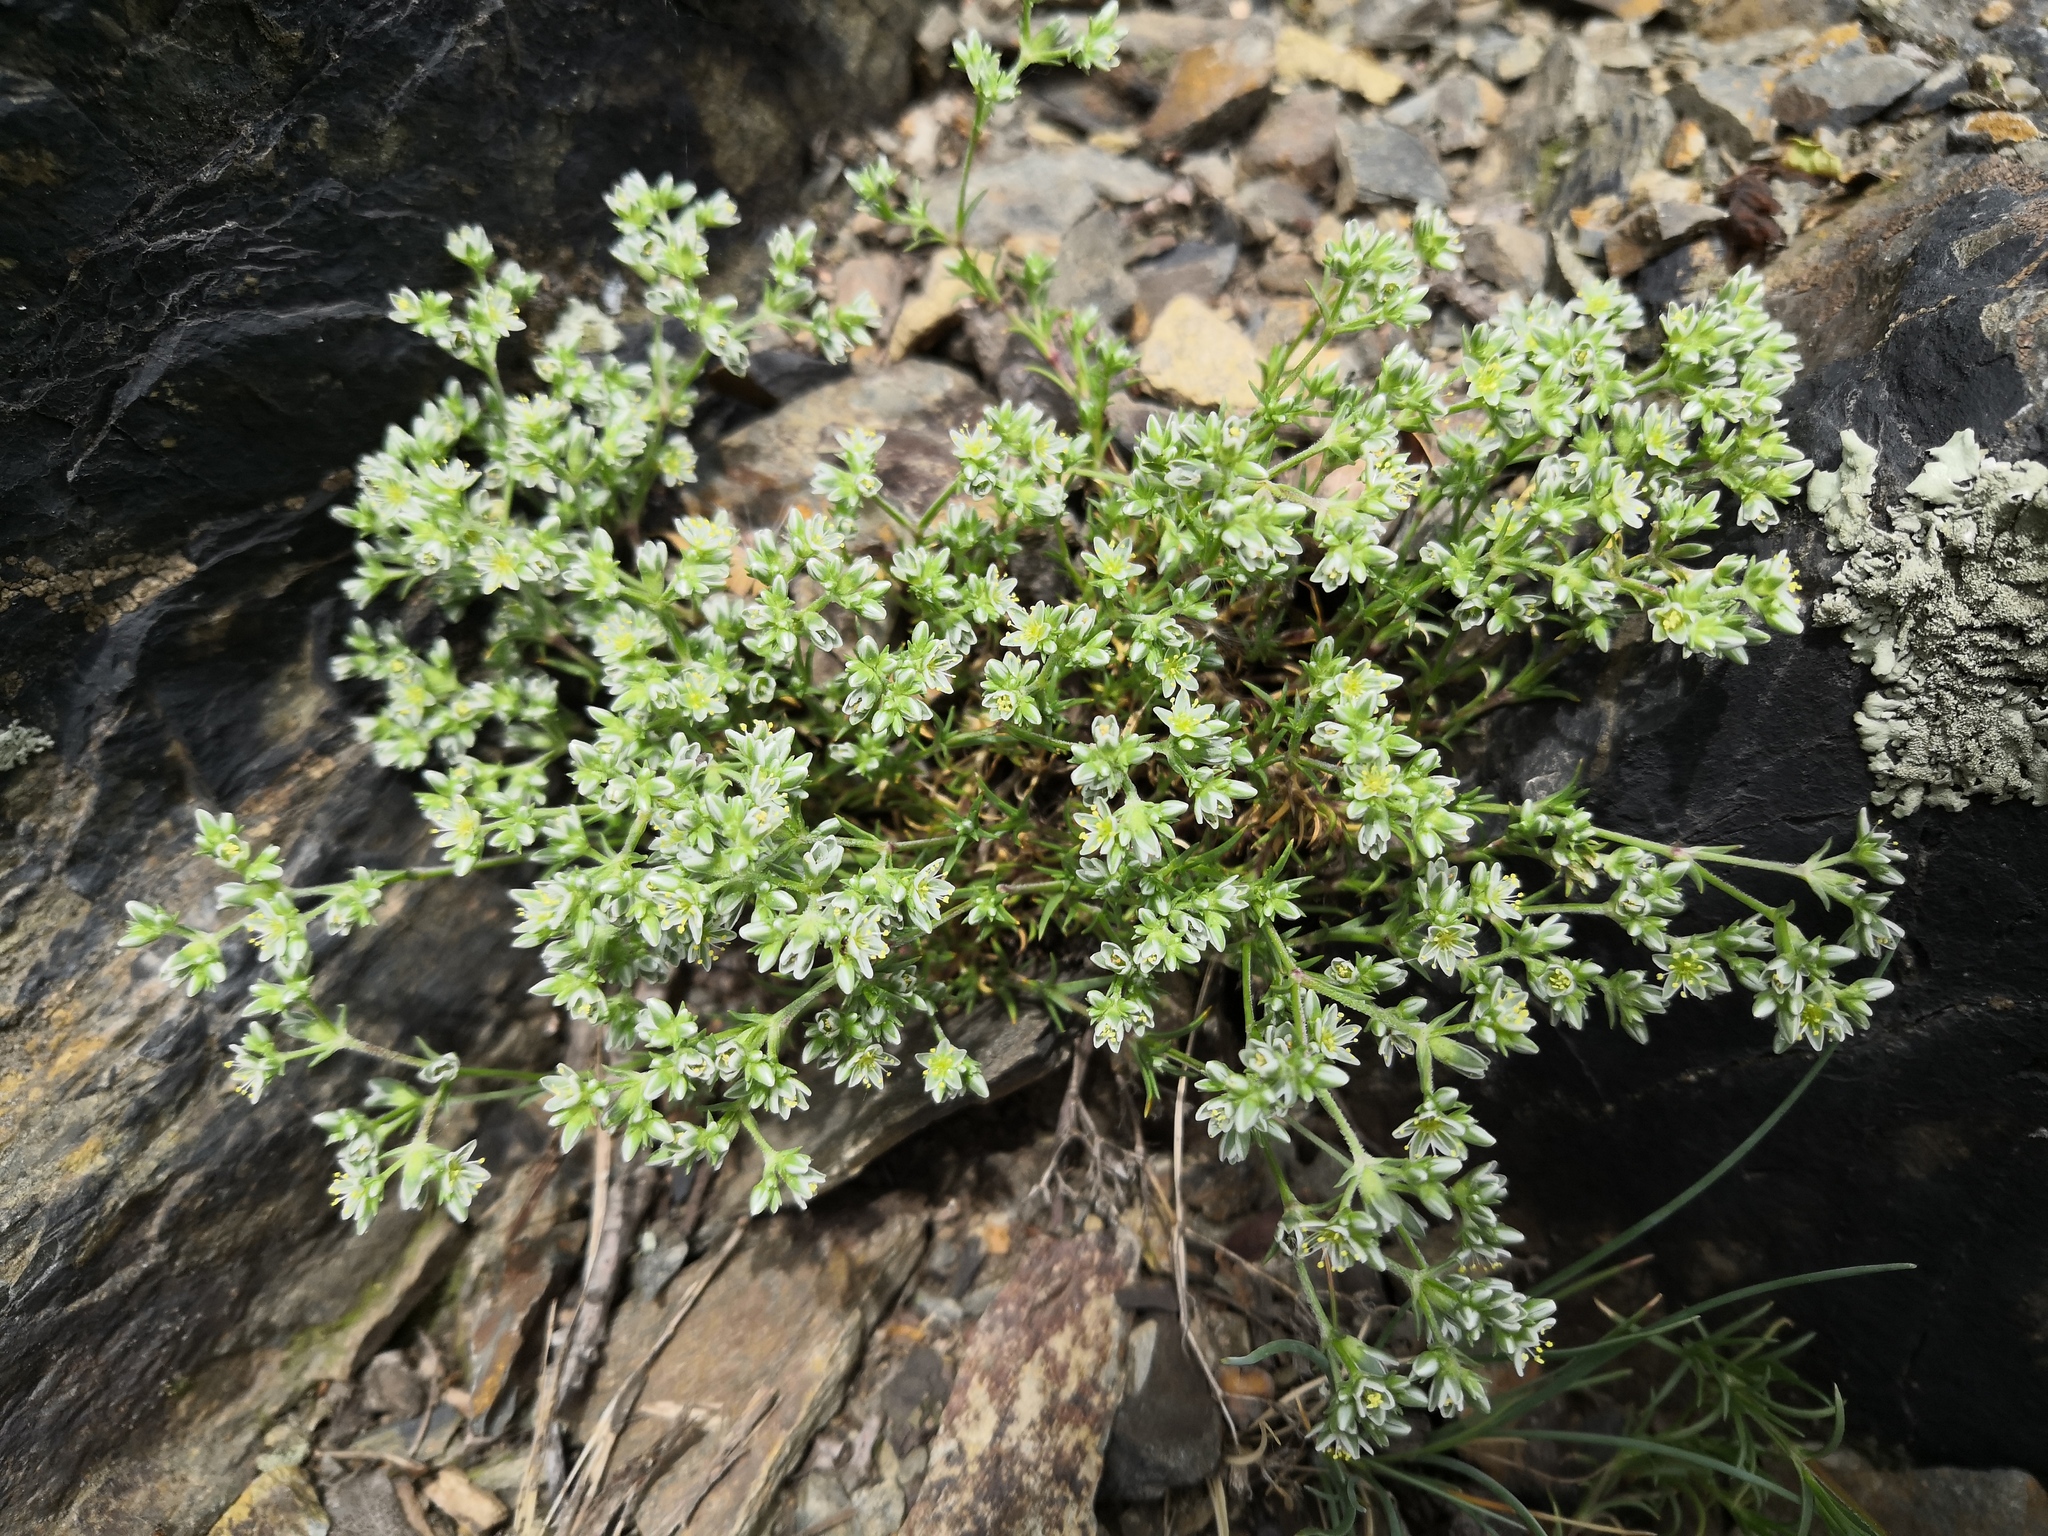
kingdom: Plantae
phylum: Tracheophyta
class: Magnoliopsida
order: Caryophyllales
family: Caryophyllaceae
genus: Scleranthus
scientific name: Scleranthus perennis
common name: Perennial knawel
